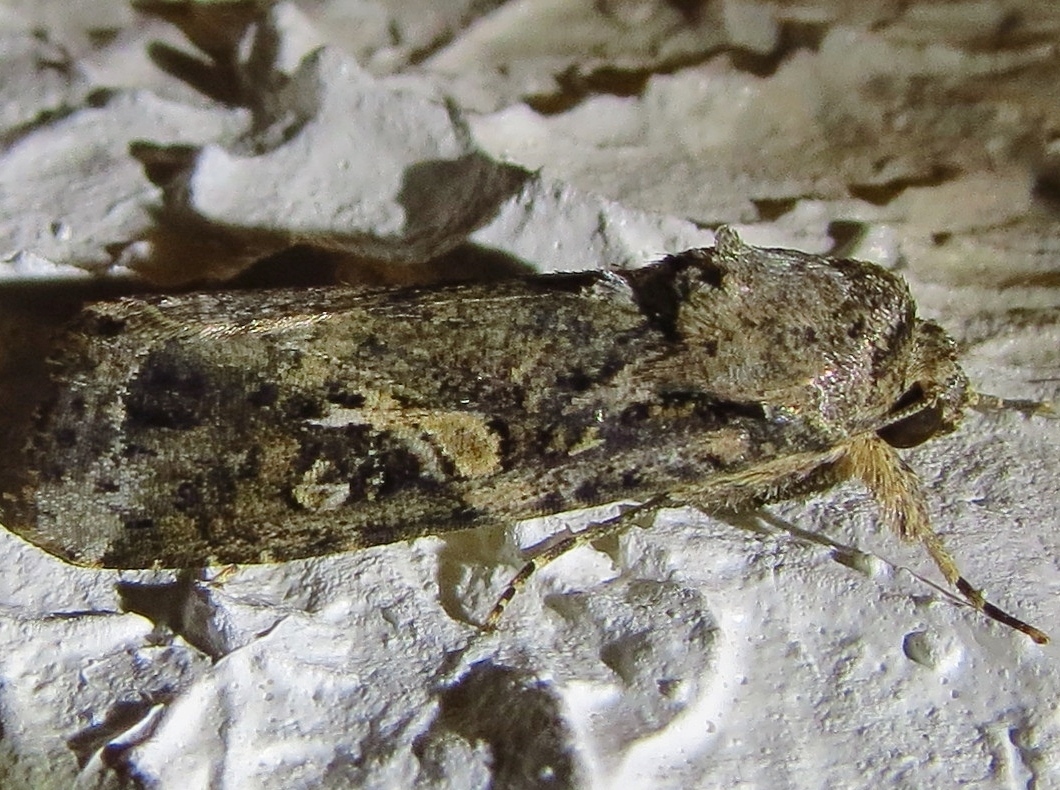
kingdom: Animalia
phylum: Arthropoda
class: Insecta
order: Lepidoptera
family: Noctuidae
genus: Spodoptera
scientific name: Spodoptera frugiperda
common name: Fall armyworm
